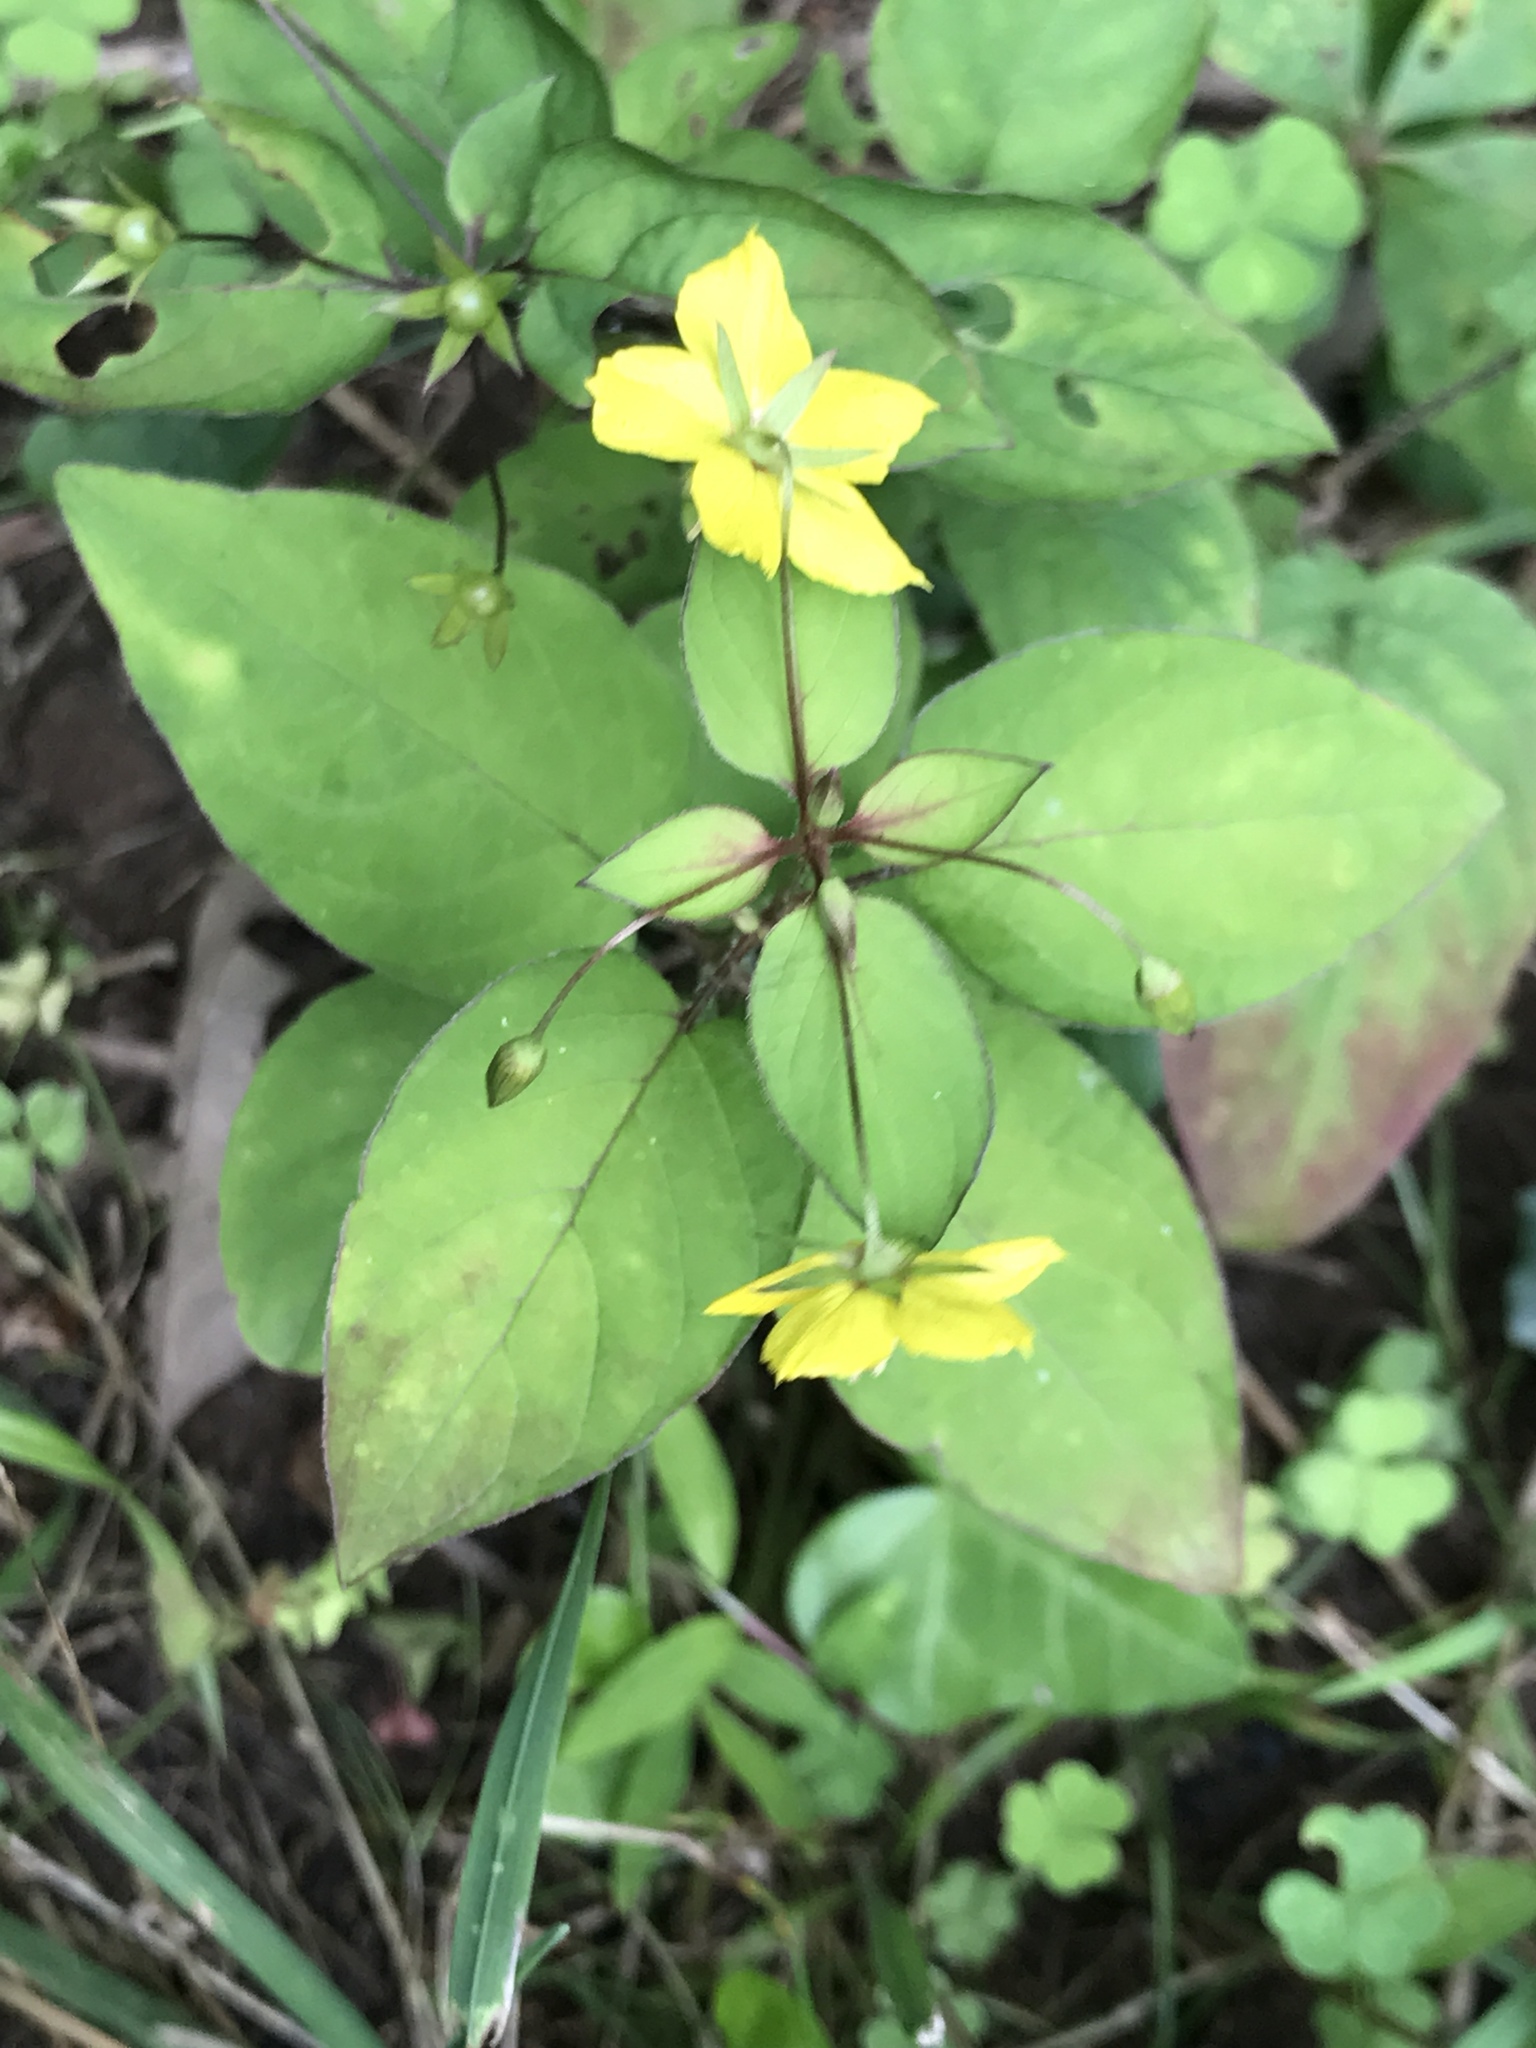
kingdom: Plantae
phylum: Tracheophyta
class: Magnoliopsida
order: Ericales
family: Primulaceae
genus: Lysimachia
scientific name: Lysimachia ciliata
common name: Fringed loosestrife
